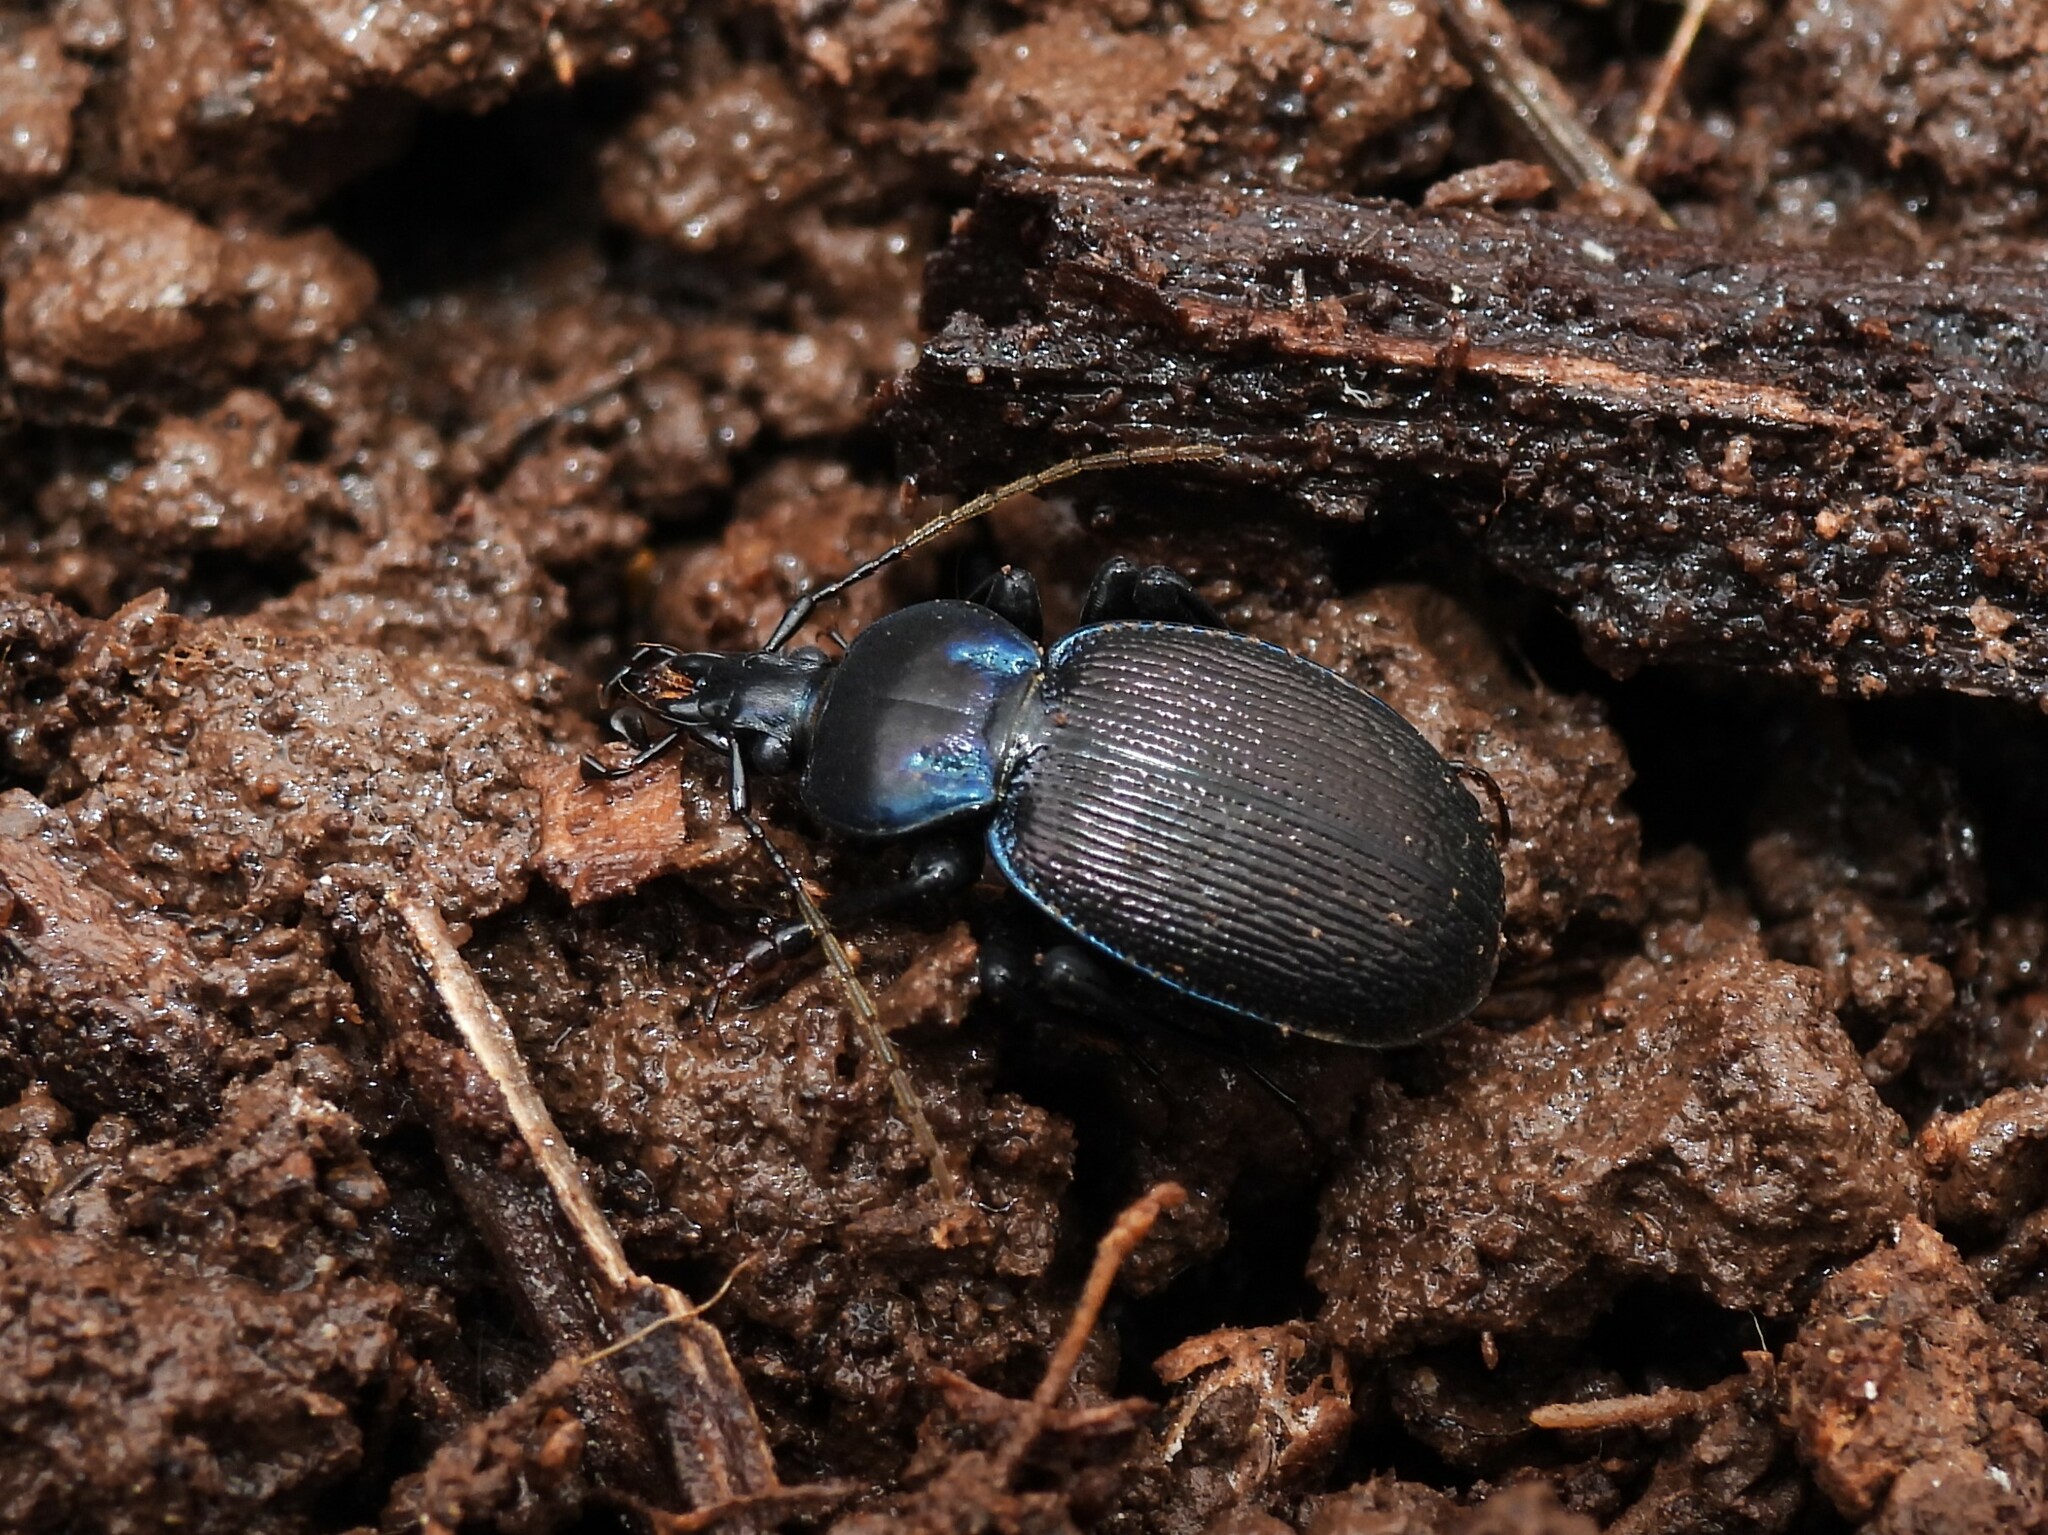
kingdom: Animalia
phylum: Arthropoda
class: Insecta
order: Coleoptera
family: Carabidae
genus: Sphaeroderus
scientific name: Sphaeroderus stenostomus
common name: Small snail-eating ground beetle
